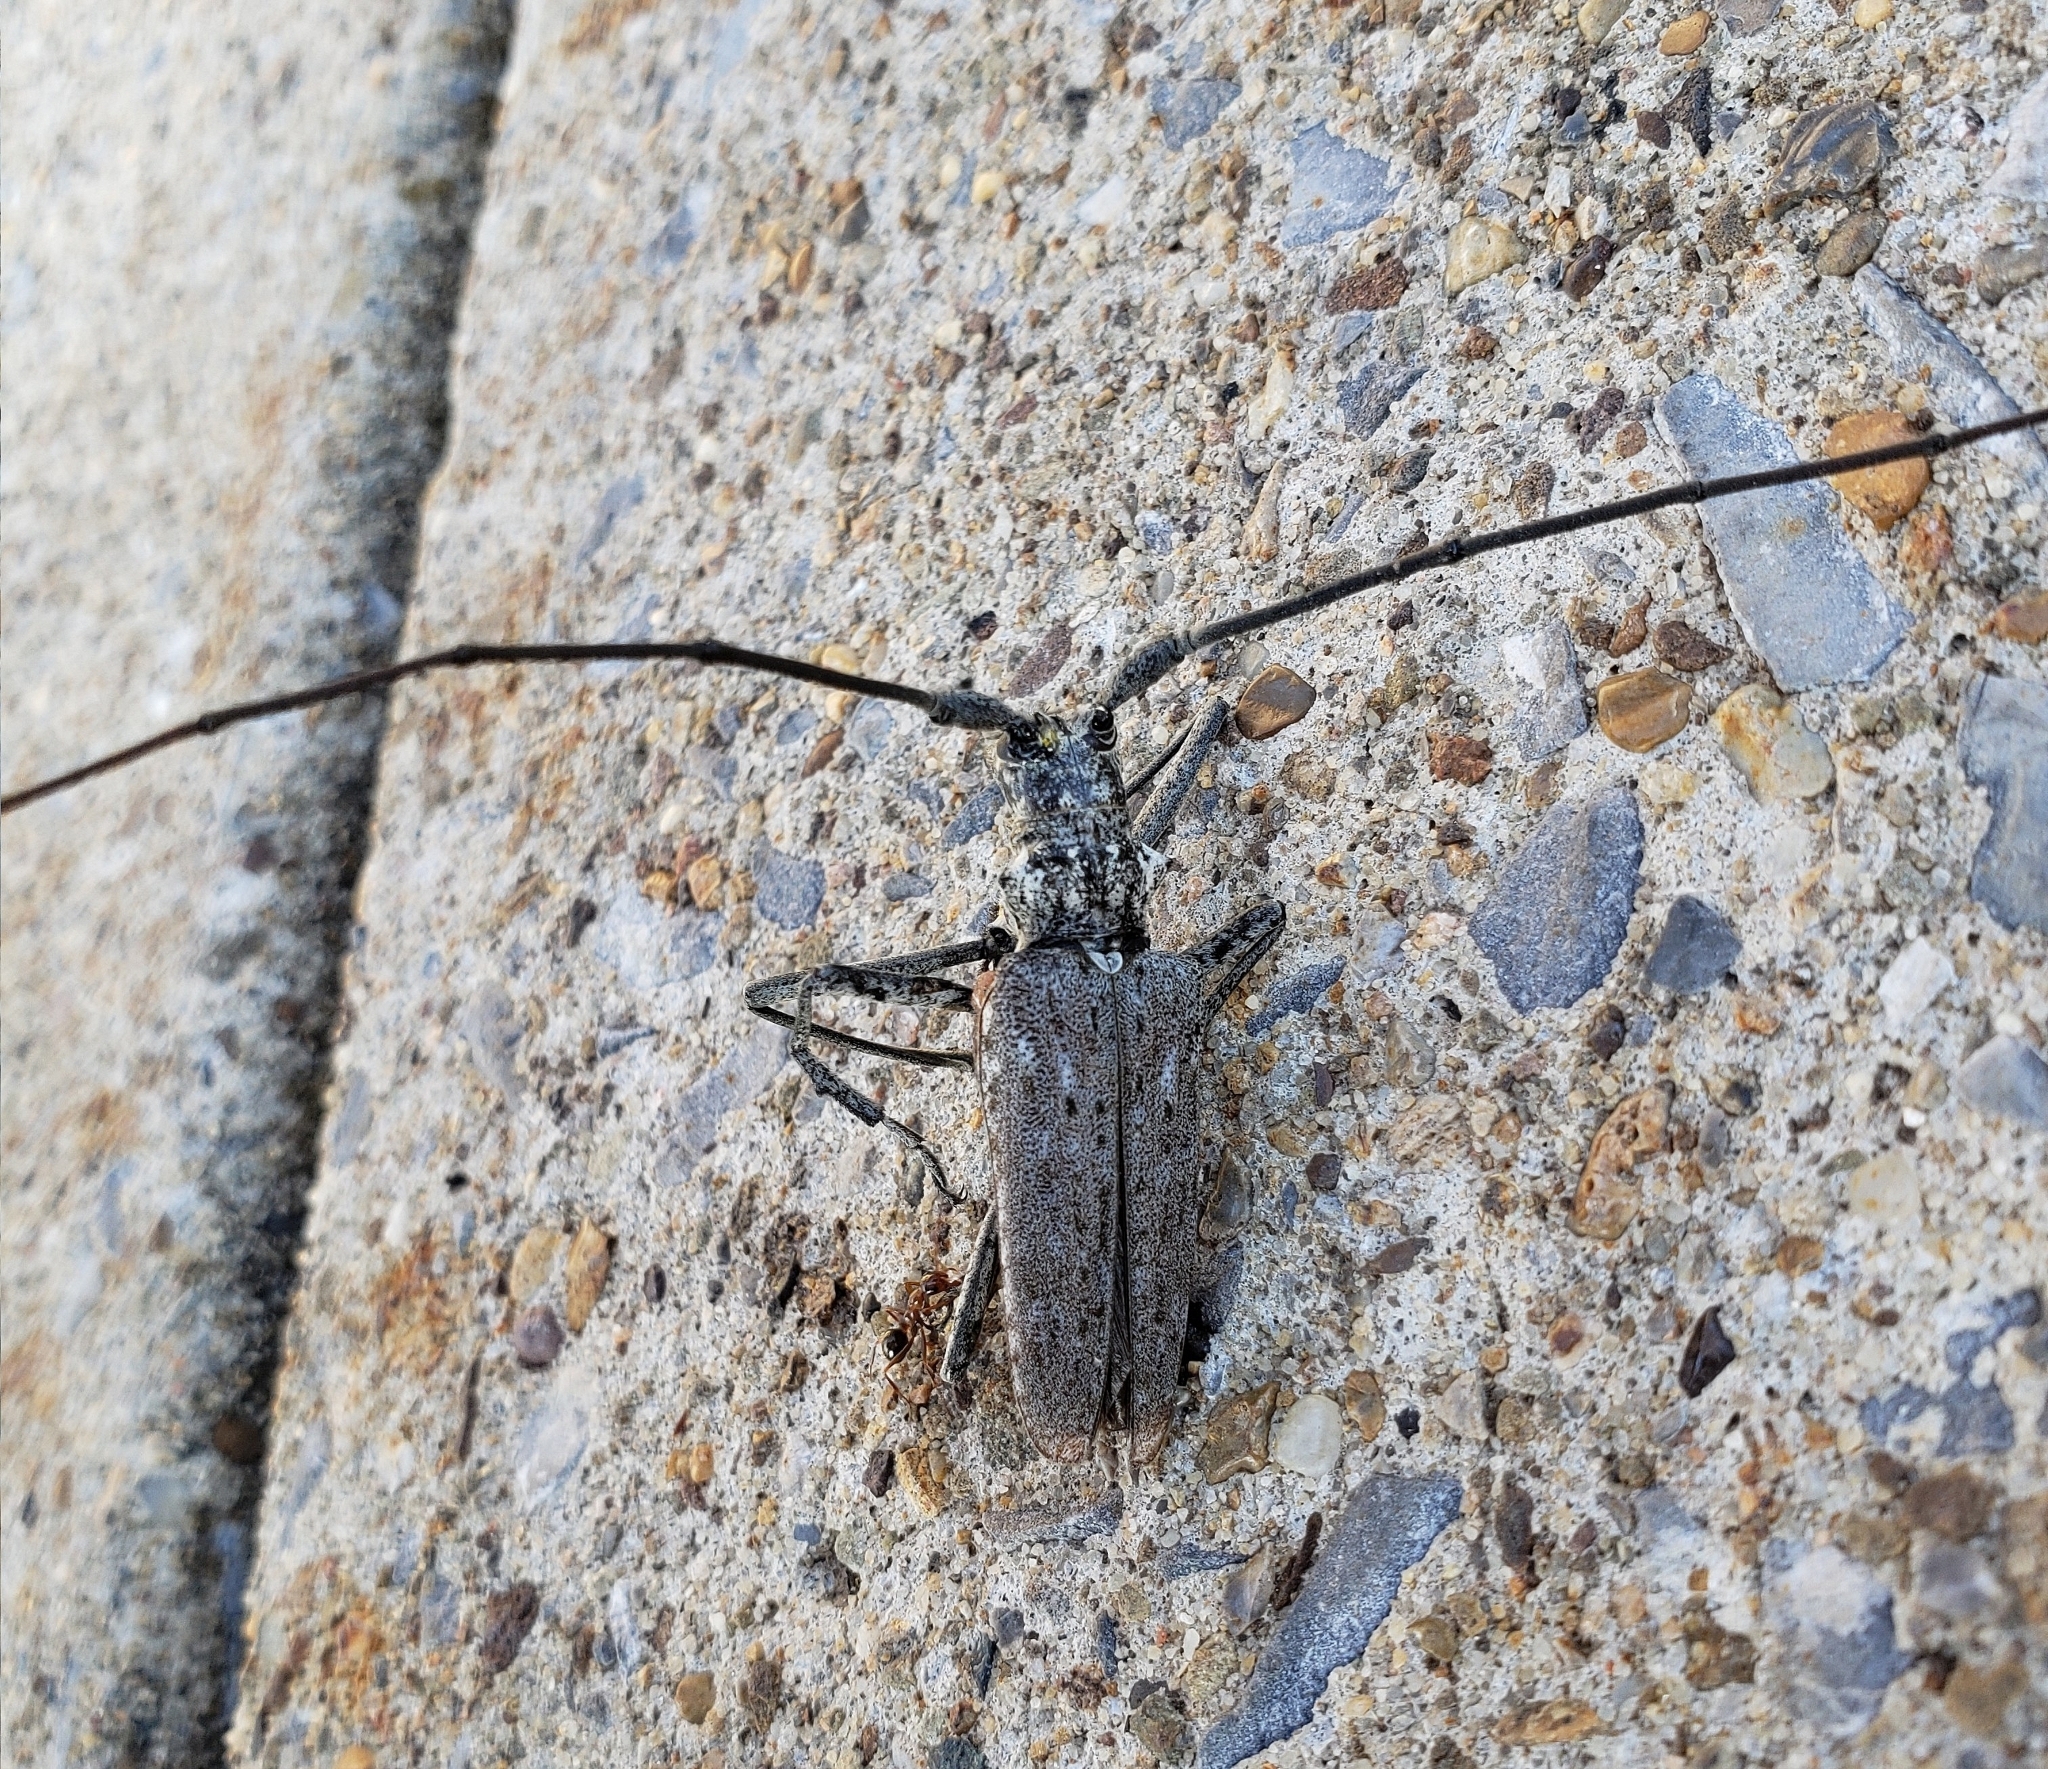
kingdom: Animalia
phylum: Arthropoda
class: Insecta
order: Coleoptera
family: Cerambycidae
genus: Monochamus
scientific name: Monochamus notatus
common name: Northeastern pine sawyer beetle
